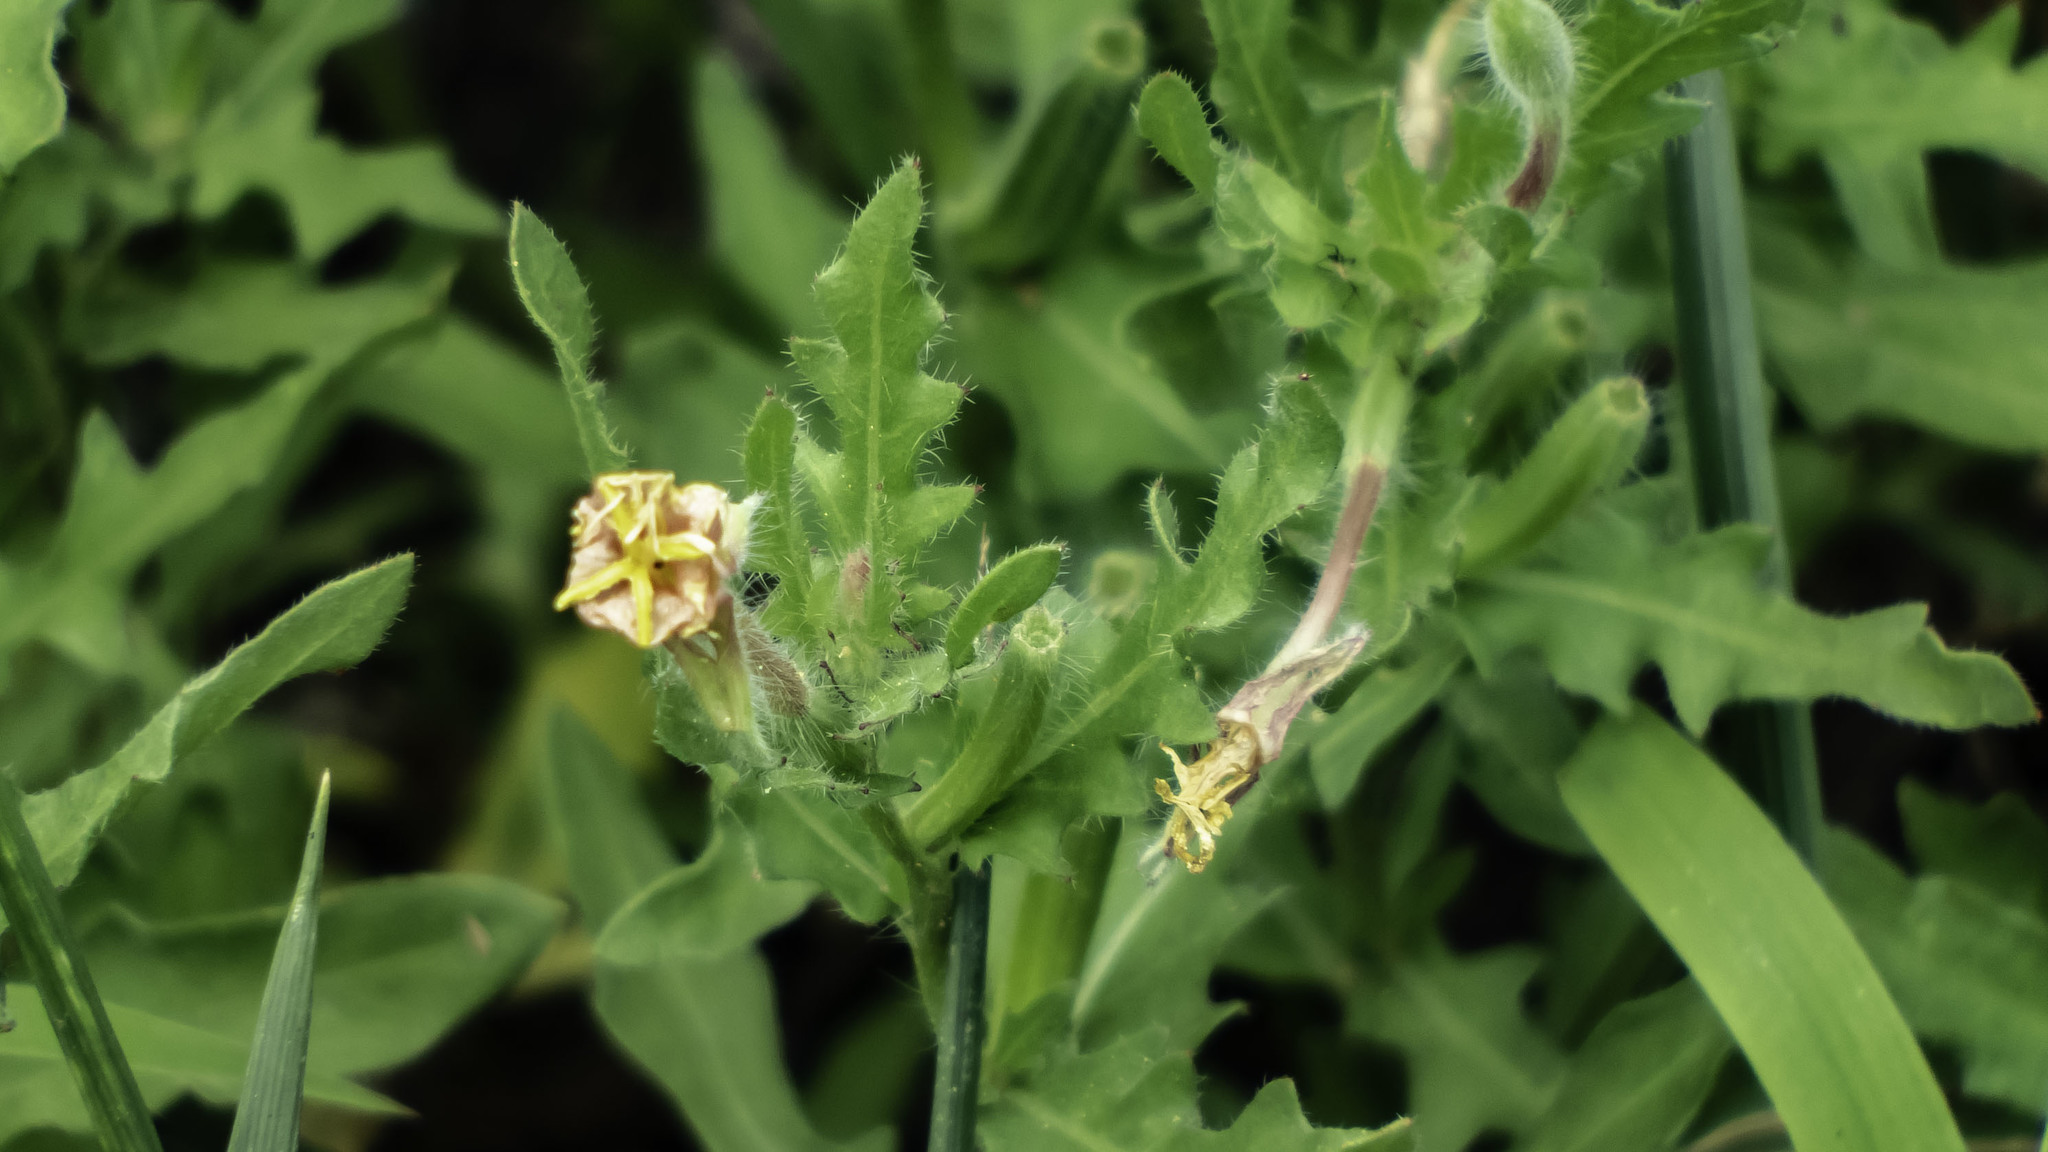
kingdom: Plantae
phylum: Tracheophyta
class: Magnoliopsida
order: Myrtales
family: Onagraceae
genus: Oenothera
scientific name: Oenothera laciniata
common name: Cut-leaved evening-primrose
